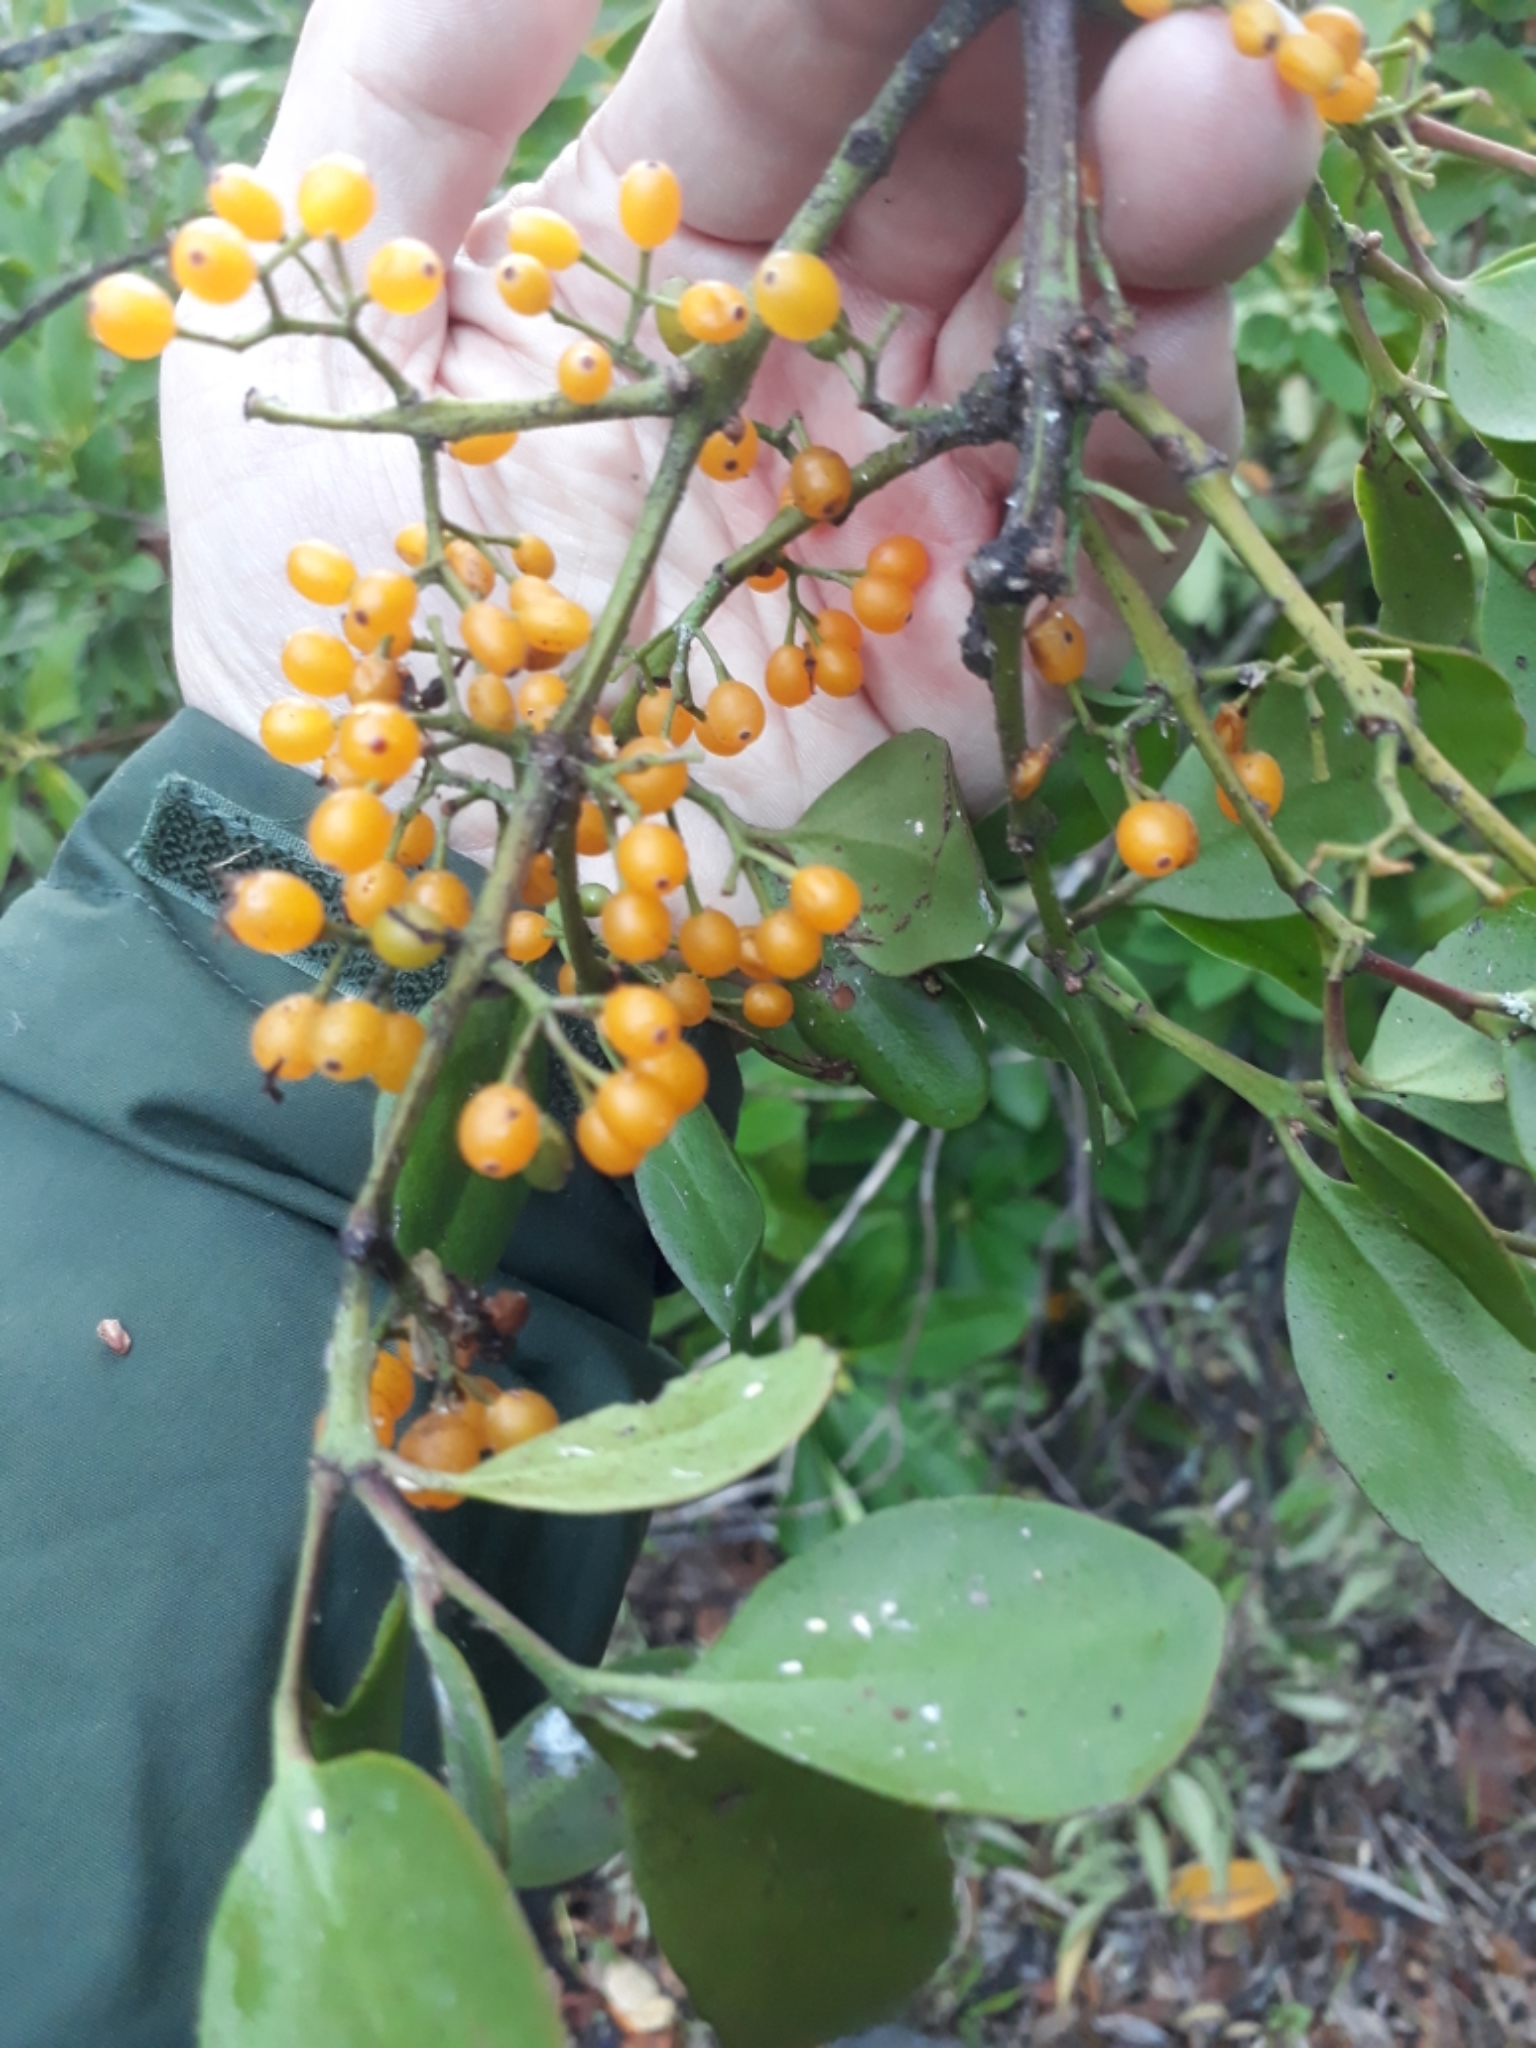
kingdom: Plantae
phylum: Tracheophyta
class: Magnoliopsida
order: Santalales
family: Loranthaceae
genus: Ileostylus
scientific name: Ileostylus micranthus
